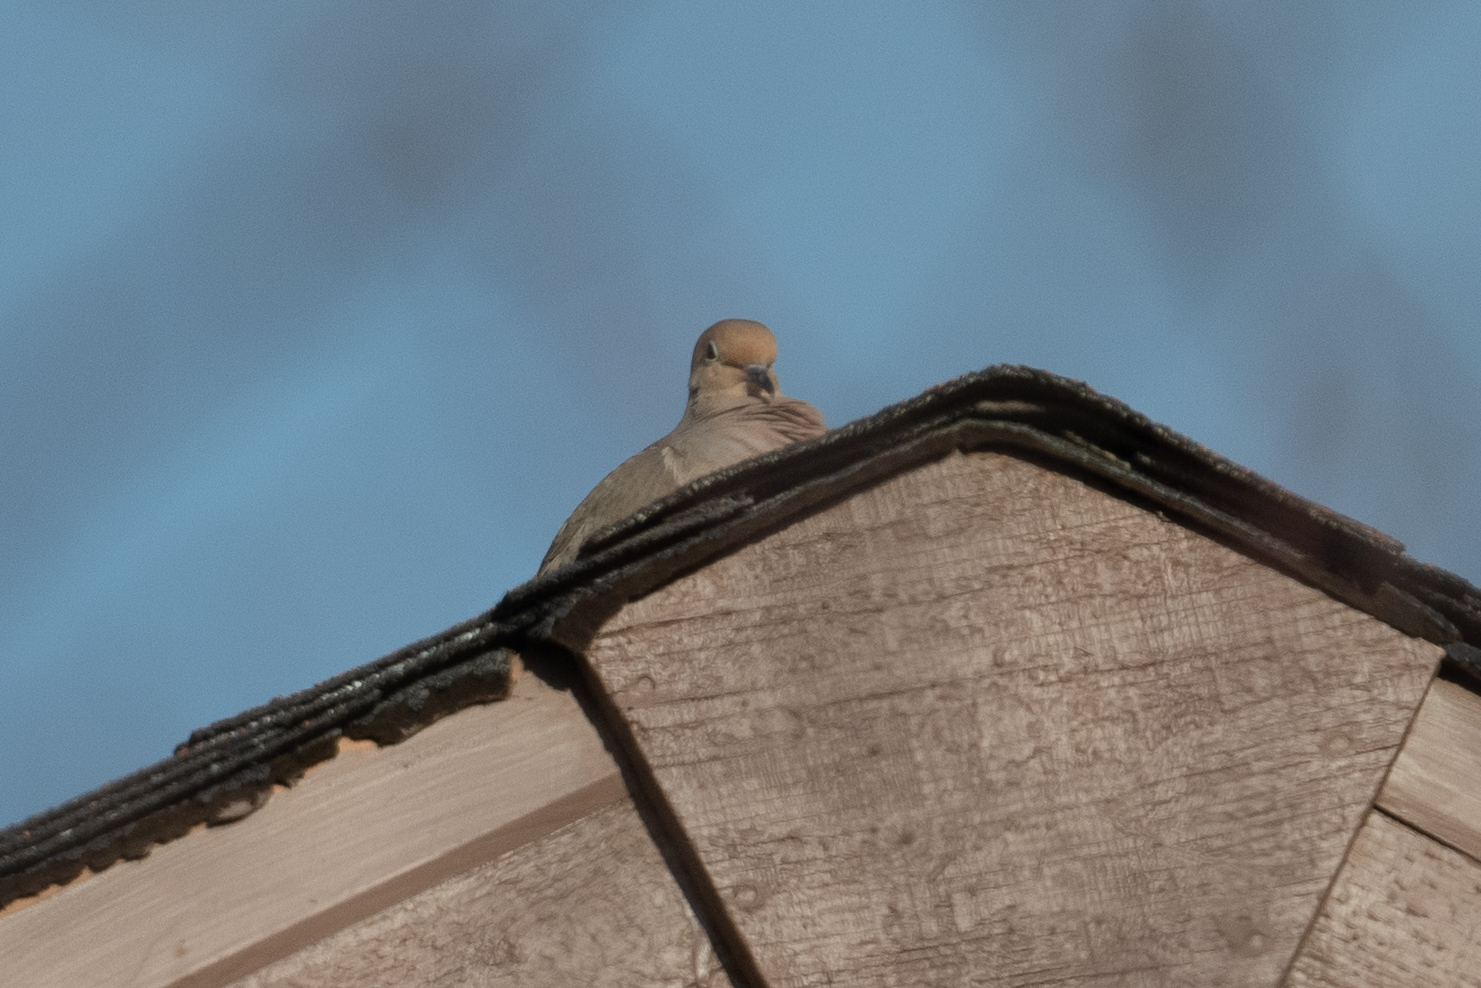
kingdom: Animalia
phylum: Chordata
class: Aves
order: Columbiformes
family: Columbidae
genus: Zenaida
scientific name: Zenaida macroura
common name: Mourning dove
